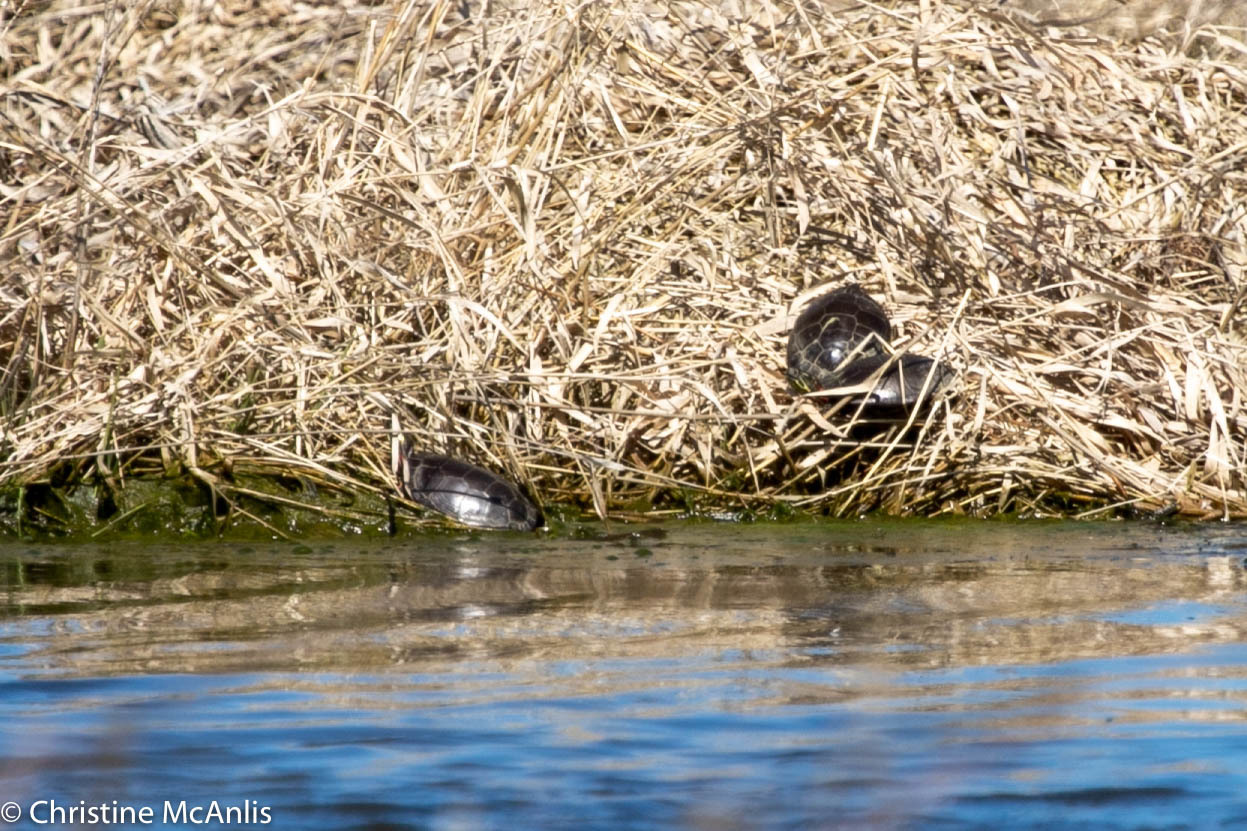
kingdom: Animalia
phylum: Chordata
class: Testudines
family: Emydidae
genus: Chrysemys
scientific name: Chrysemys picta
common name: Painted turtle
